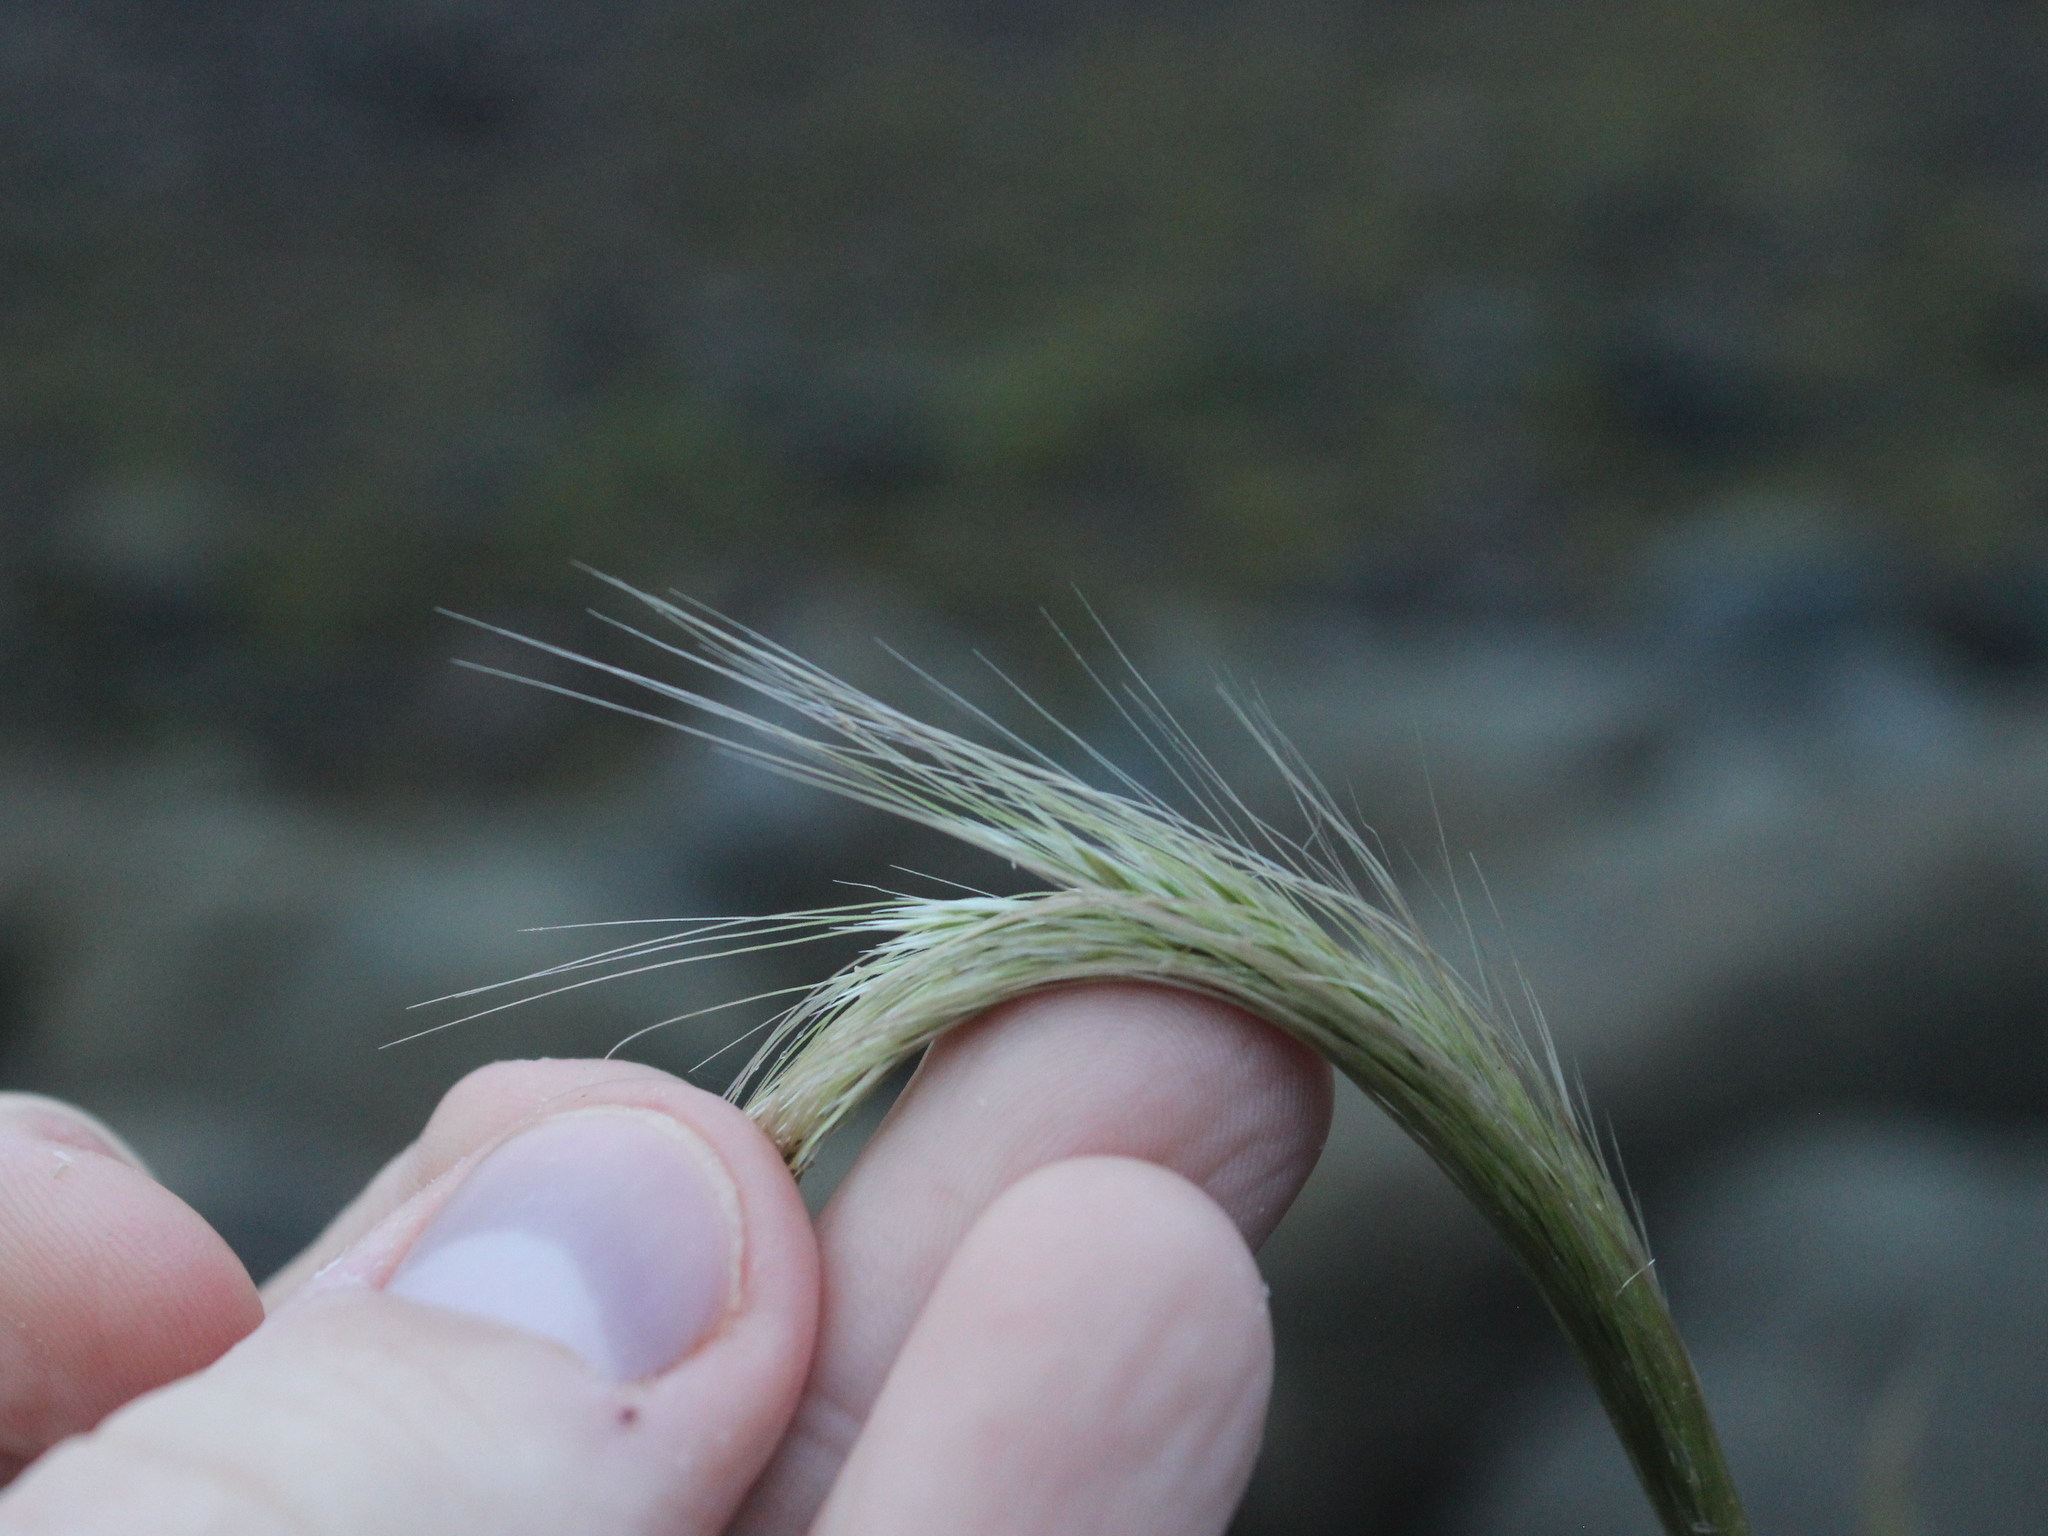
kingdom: Plantae
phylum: Tracheophyta
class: Liliopsida
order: Poales
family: Poaceae
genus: Dichelachne
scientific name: Dichelachne crinita
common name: Clovenfoot plumegrass
